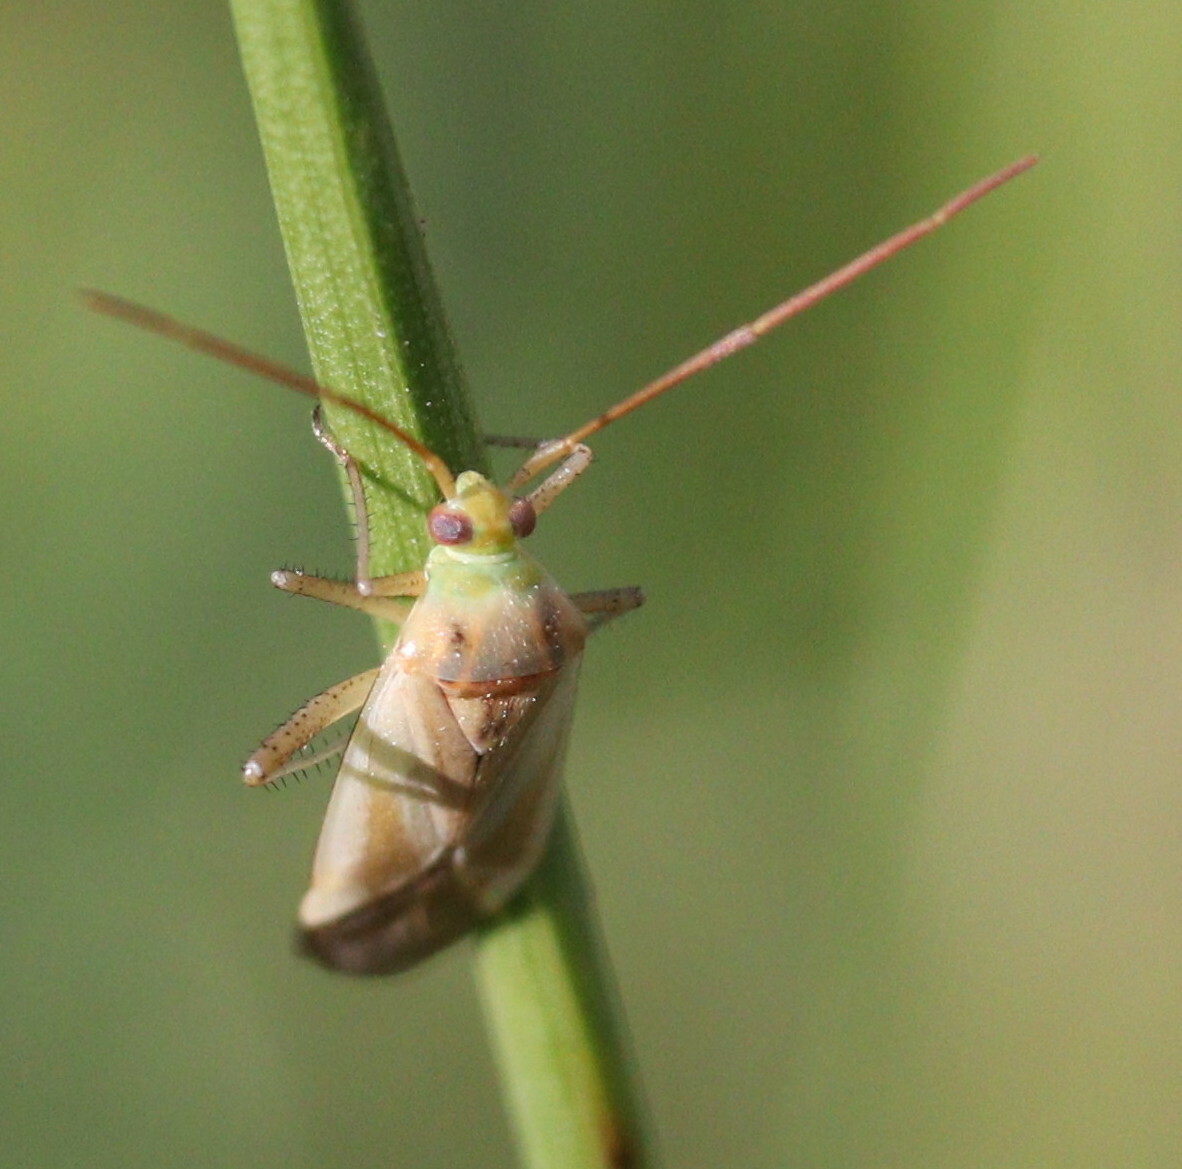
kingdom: Animalia
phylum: Arthropoda
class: Insecta
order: Hemiptera
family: Miridae
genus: Adelphocoris
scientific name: Adelphocoris lineolatus
